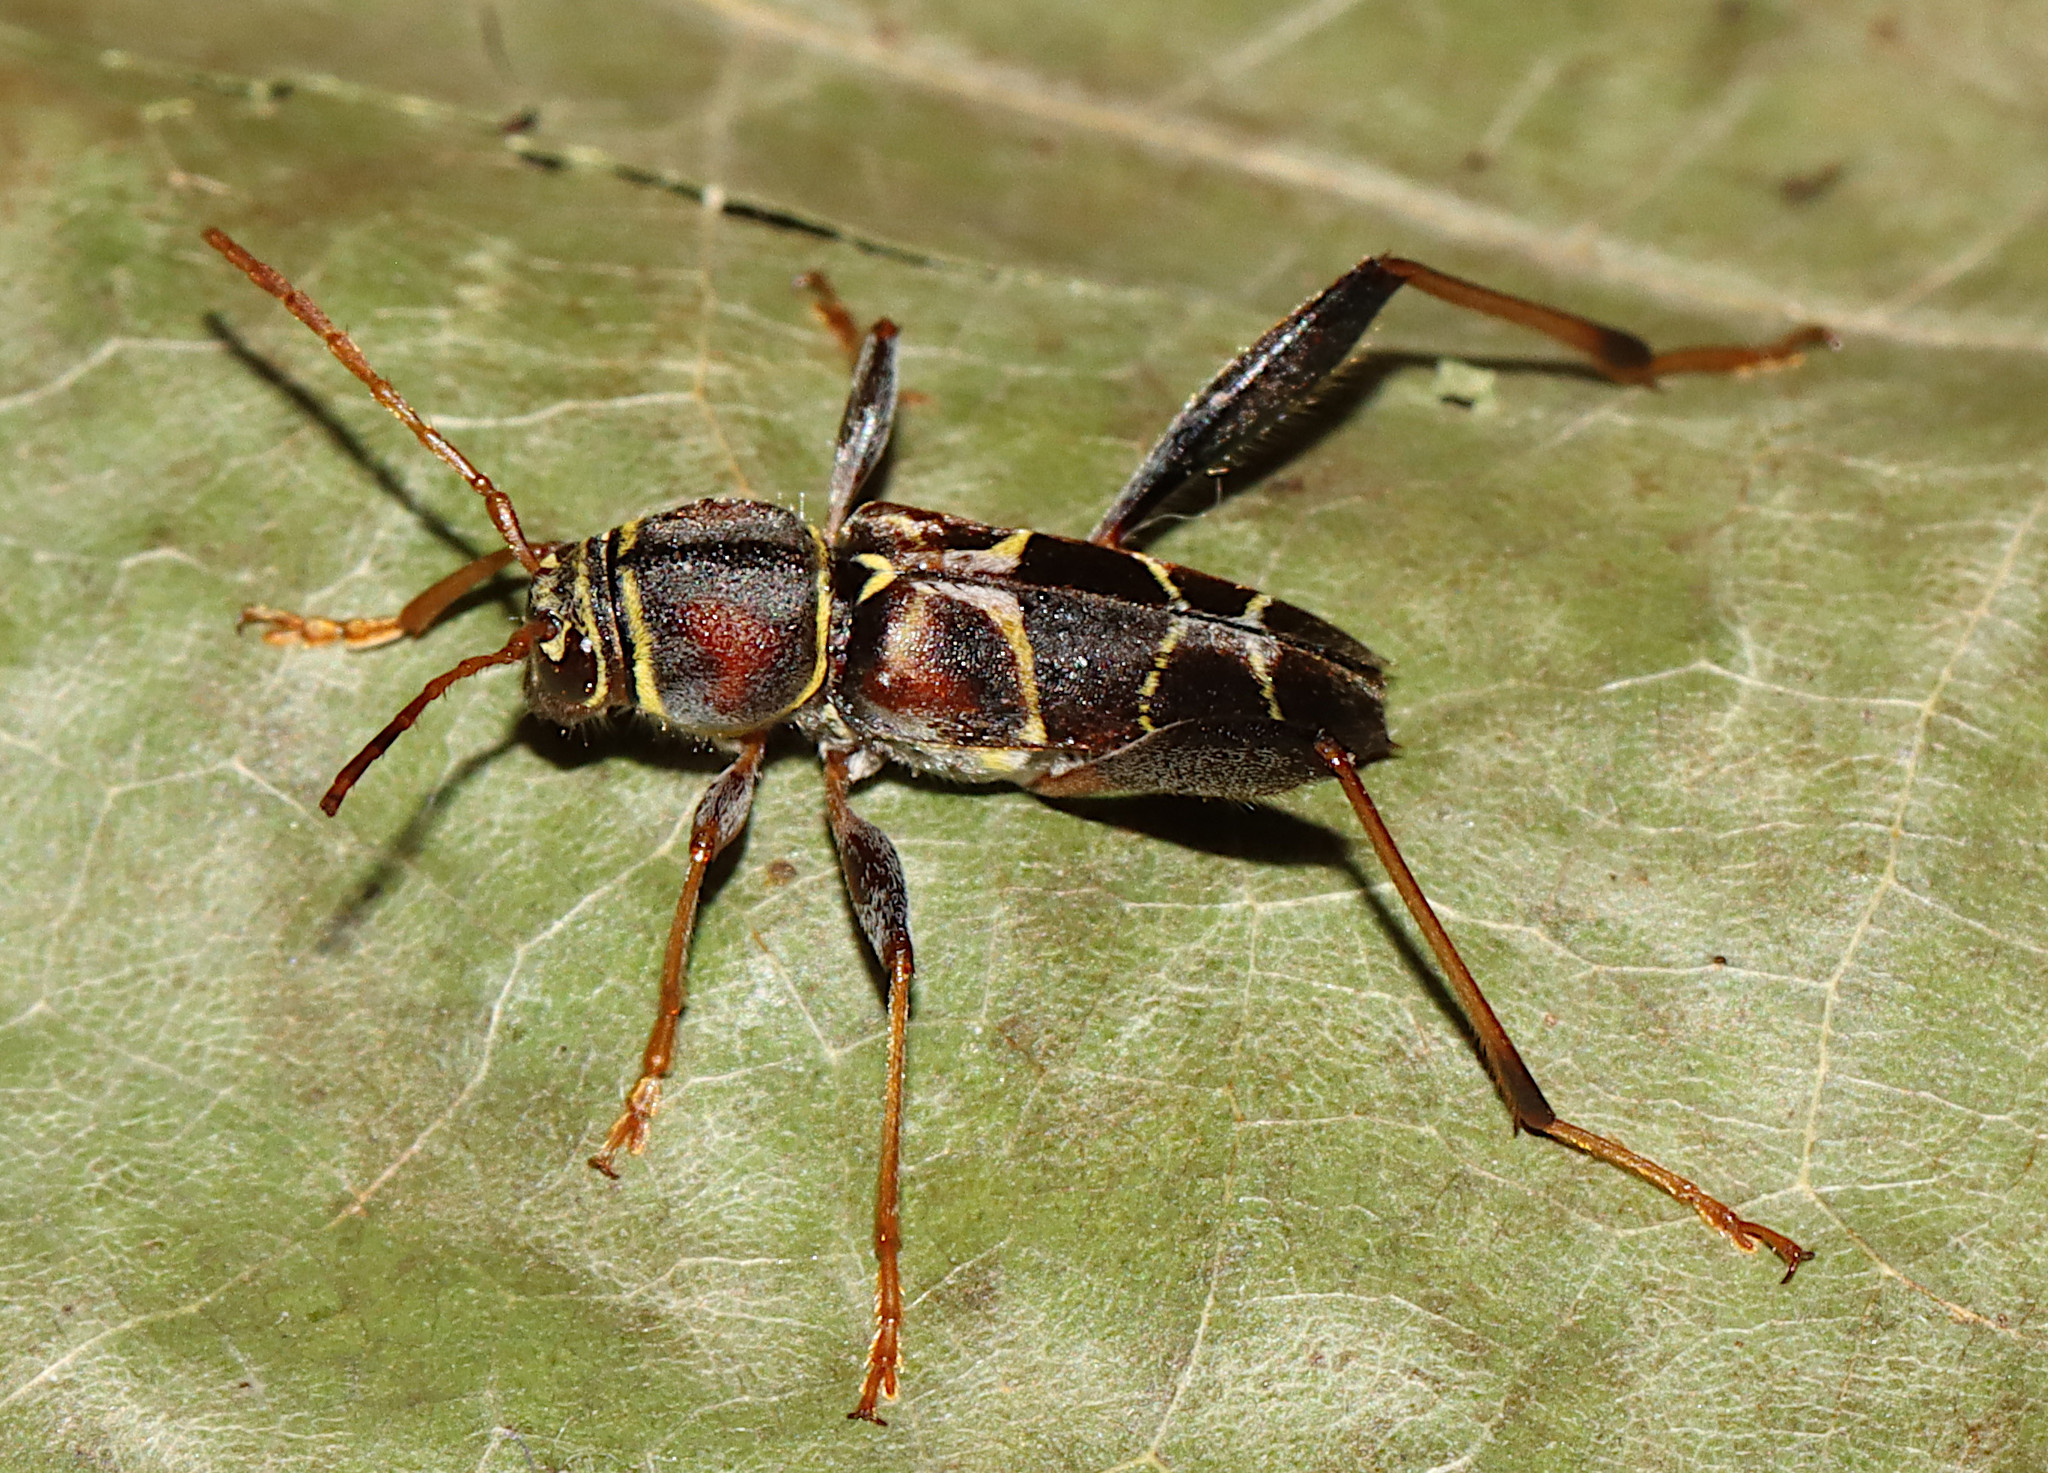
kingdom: Animalia
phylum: Arthropoda
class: Insecta
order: Coleoptera
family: Cerambycidae
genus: Neoclytus
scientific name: Neoclytus mucronatus
